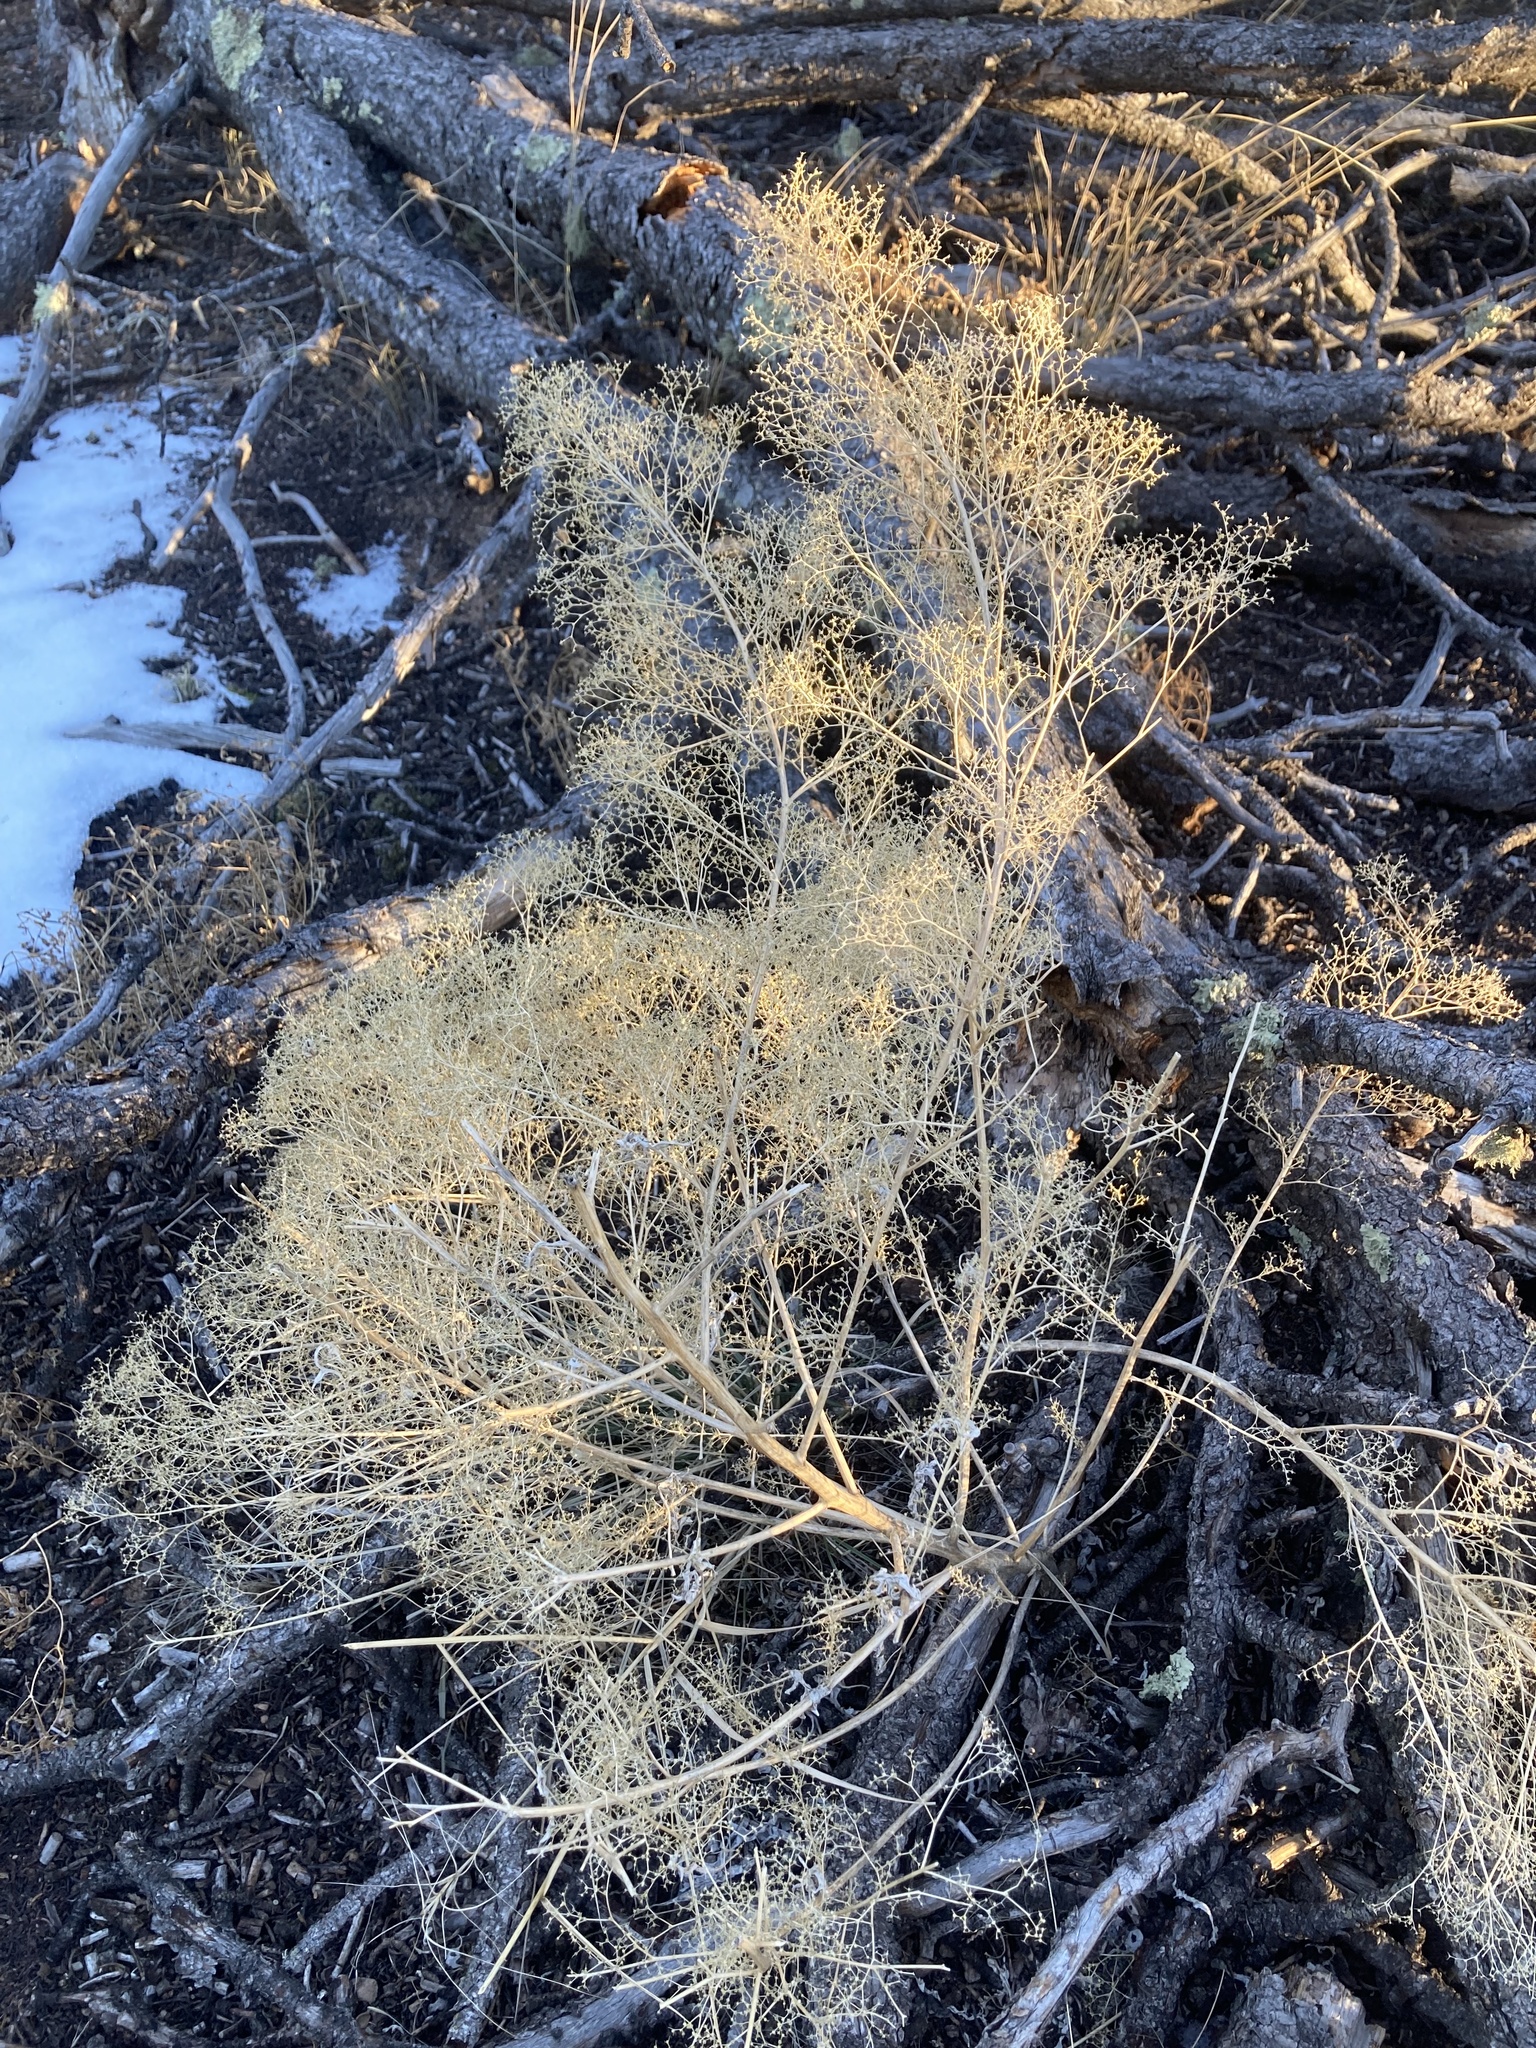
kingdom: Plantae
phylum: Tracheophyta
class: Magnoliopsida
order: Caryophyllales
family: Amaranthaceae
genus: Dysphania
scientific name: Dysphania incisa
